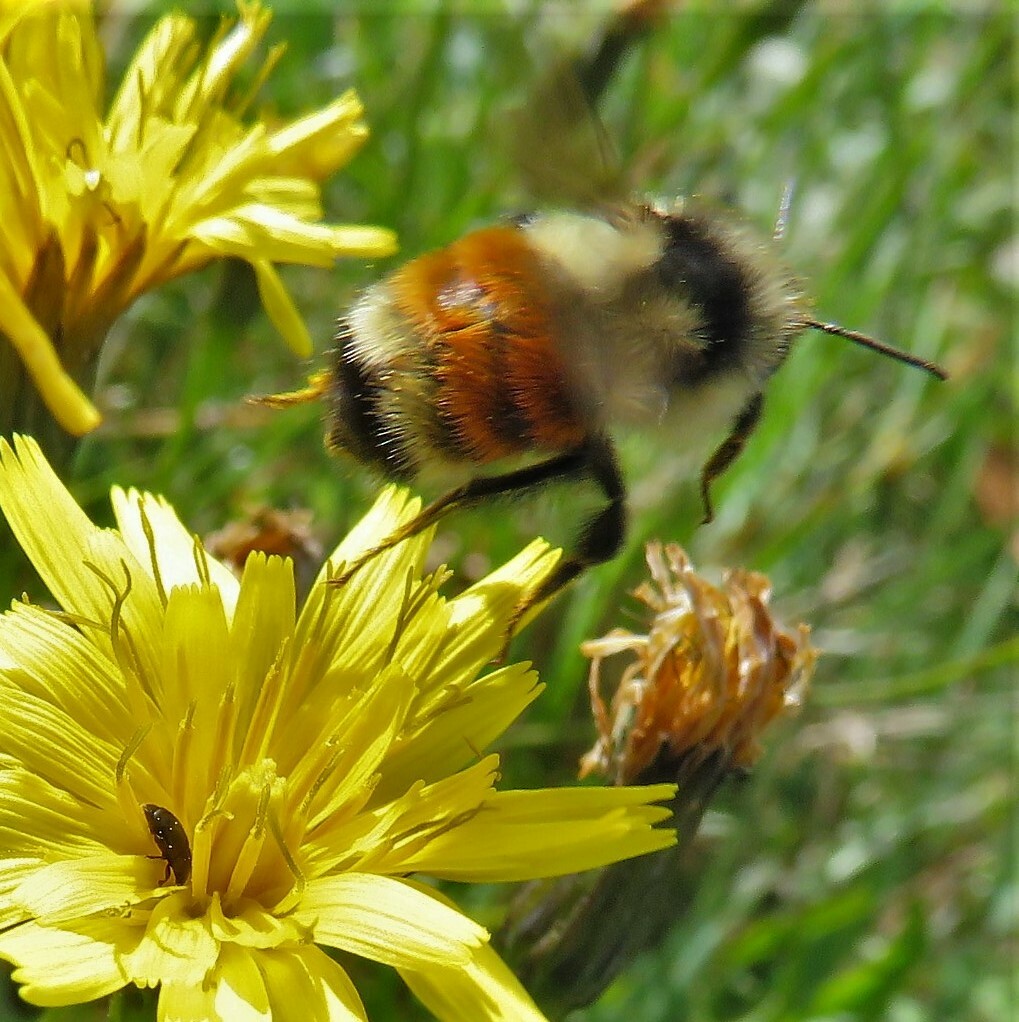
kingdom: Animalia
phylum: Arthropoda
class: Insecta
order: Hymenoptera
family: Apidae
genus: Bombus
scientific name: Bombus ternarius
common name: Tri-colored bumble bee
